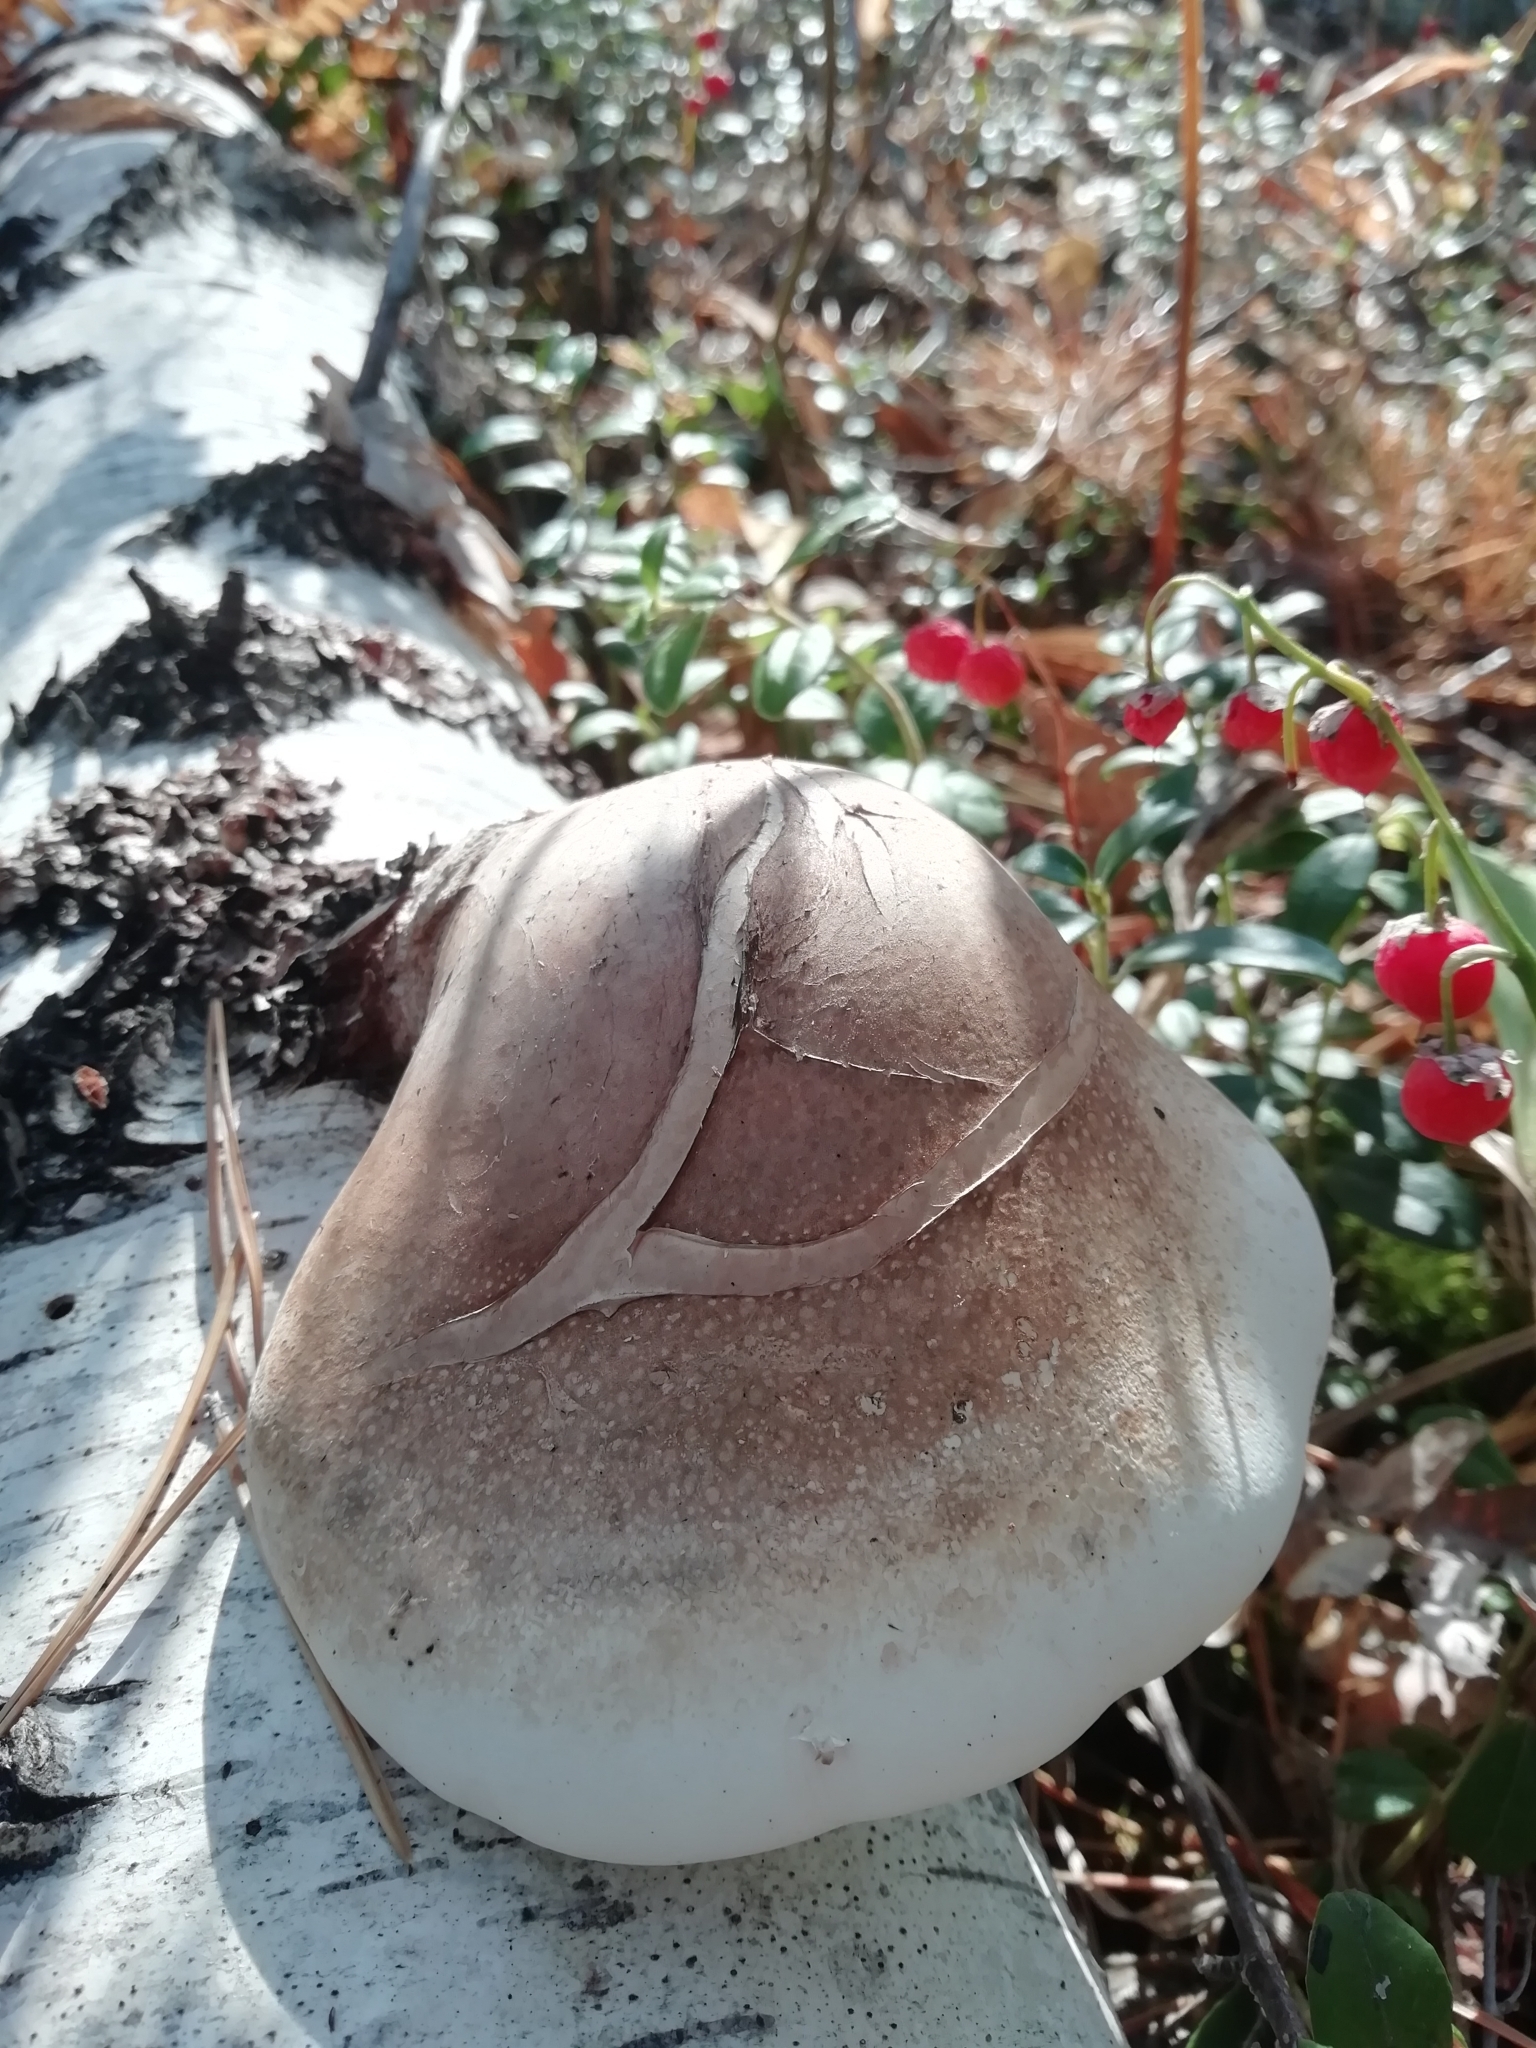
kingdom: Fungi
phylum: Basidiomycota
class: Agaricomycetes
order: Polyporales
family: Fomitopsidaceae
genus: Fomitopsis
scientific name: Fomitopsis betulina
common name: Birch polypore
